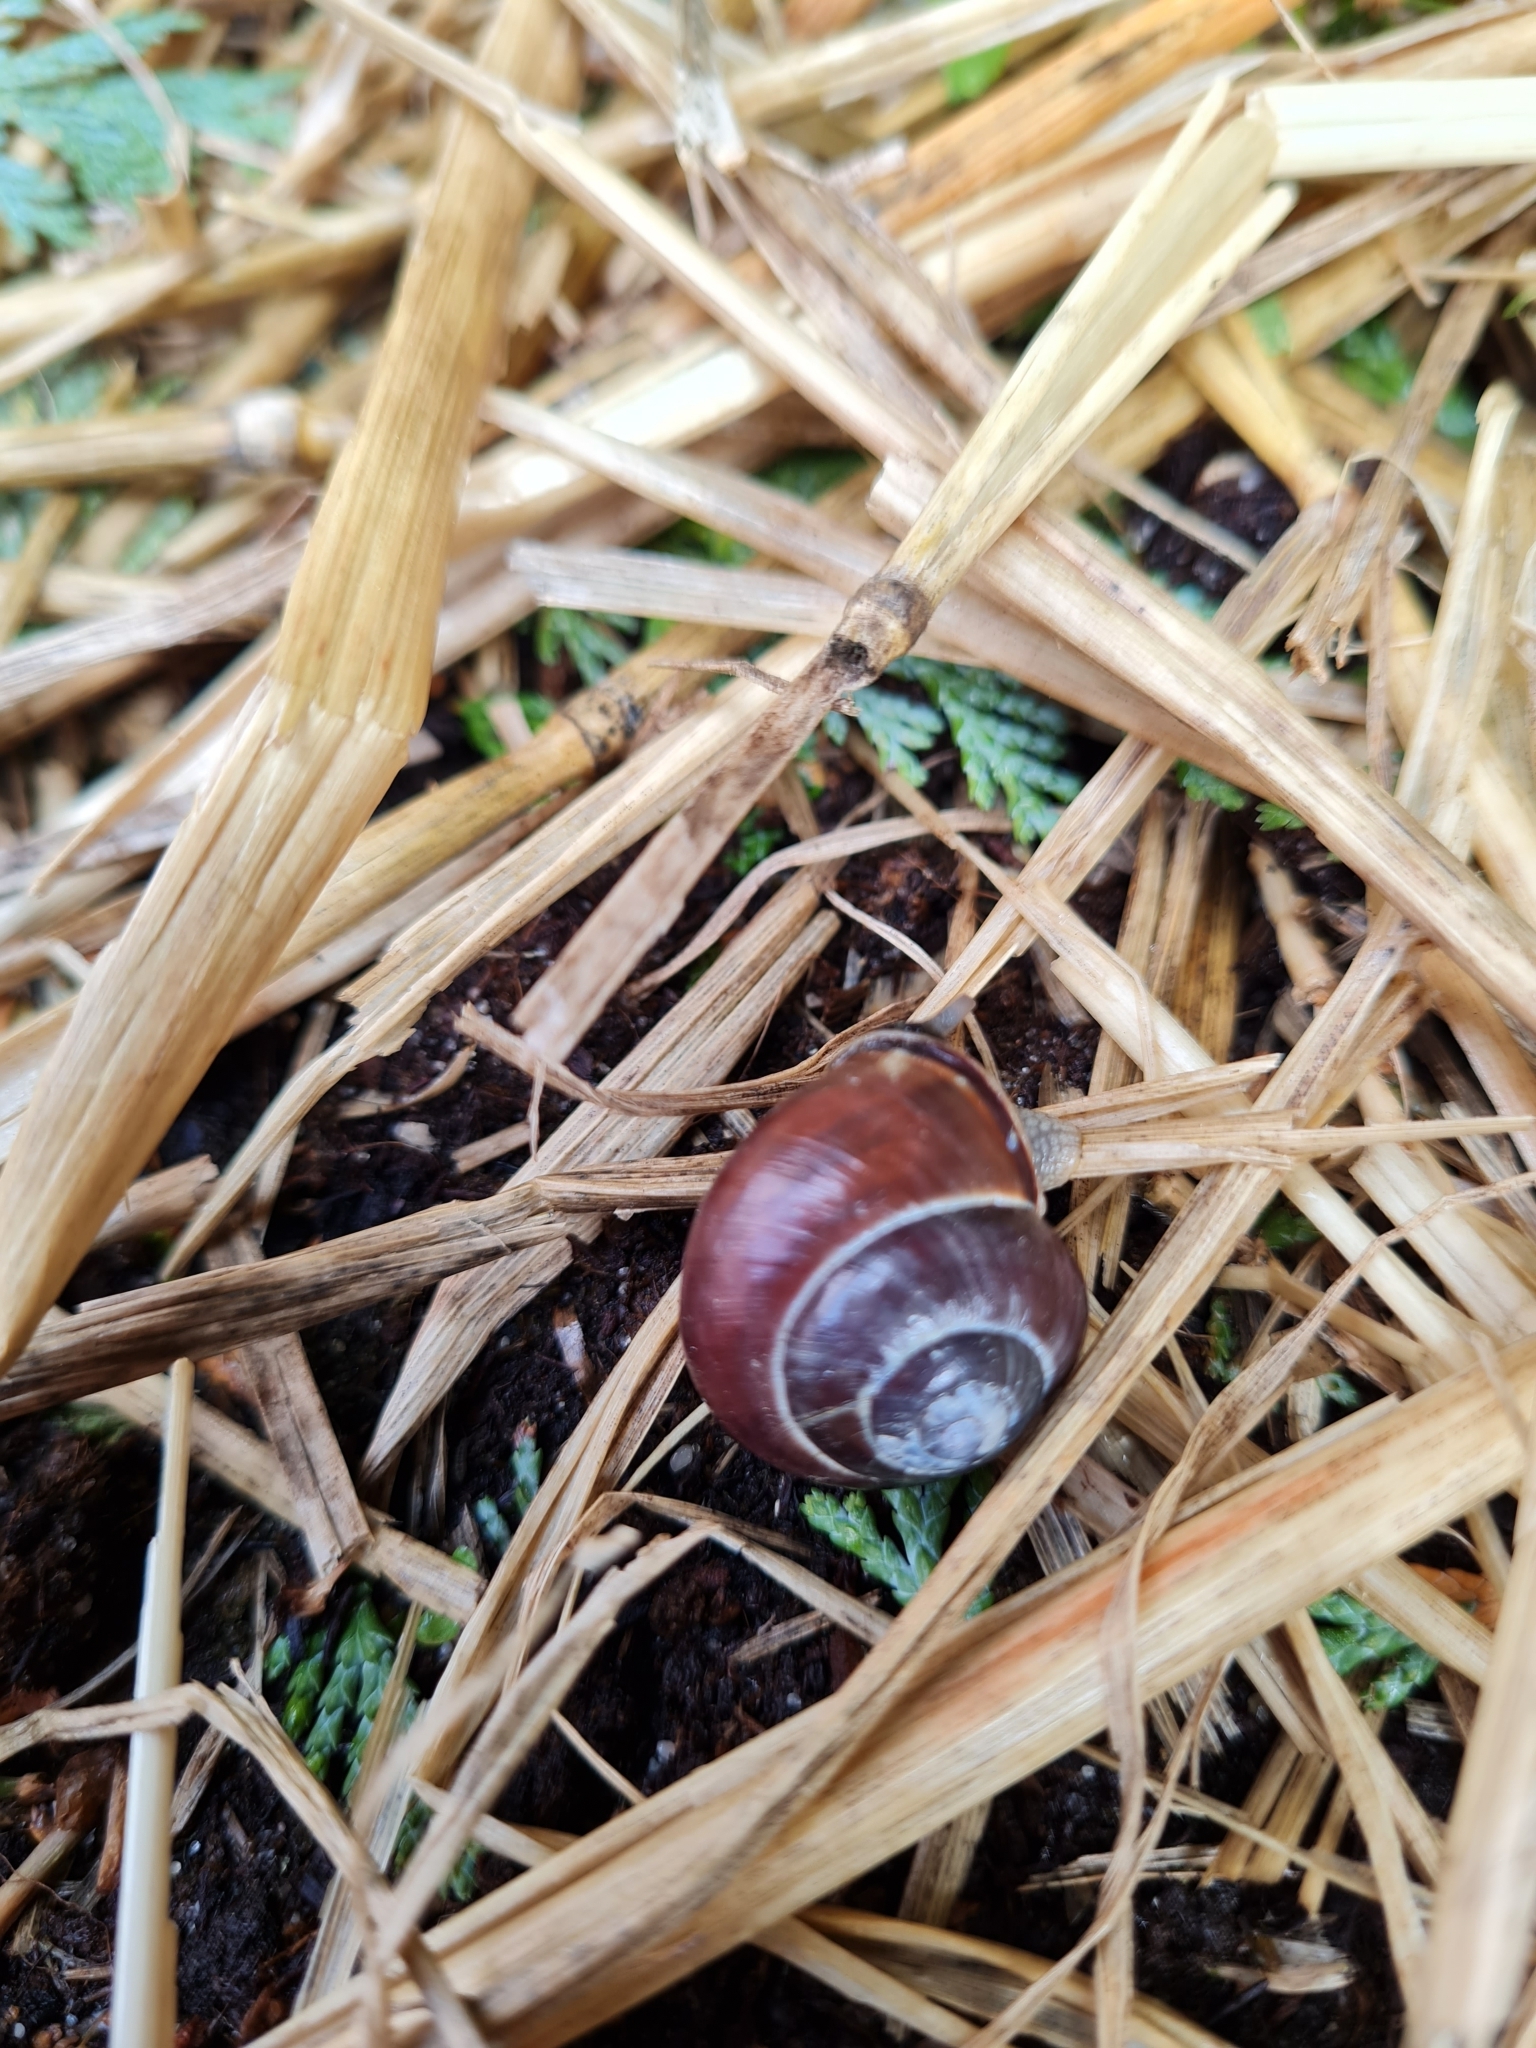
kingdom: Animalia
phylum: Mollusca
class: Gastropoda
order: Stylommatophora
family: Helicidae
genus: Cepaea
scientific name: Cepaea nemoralis
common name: Grovesnail
